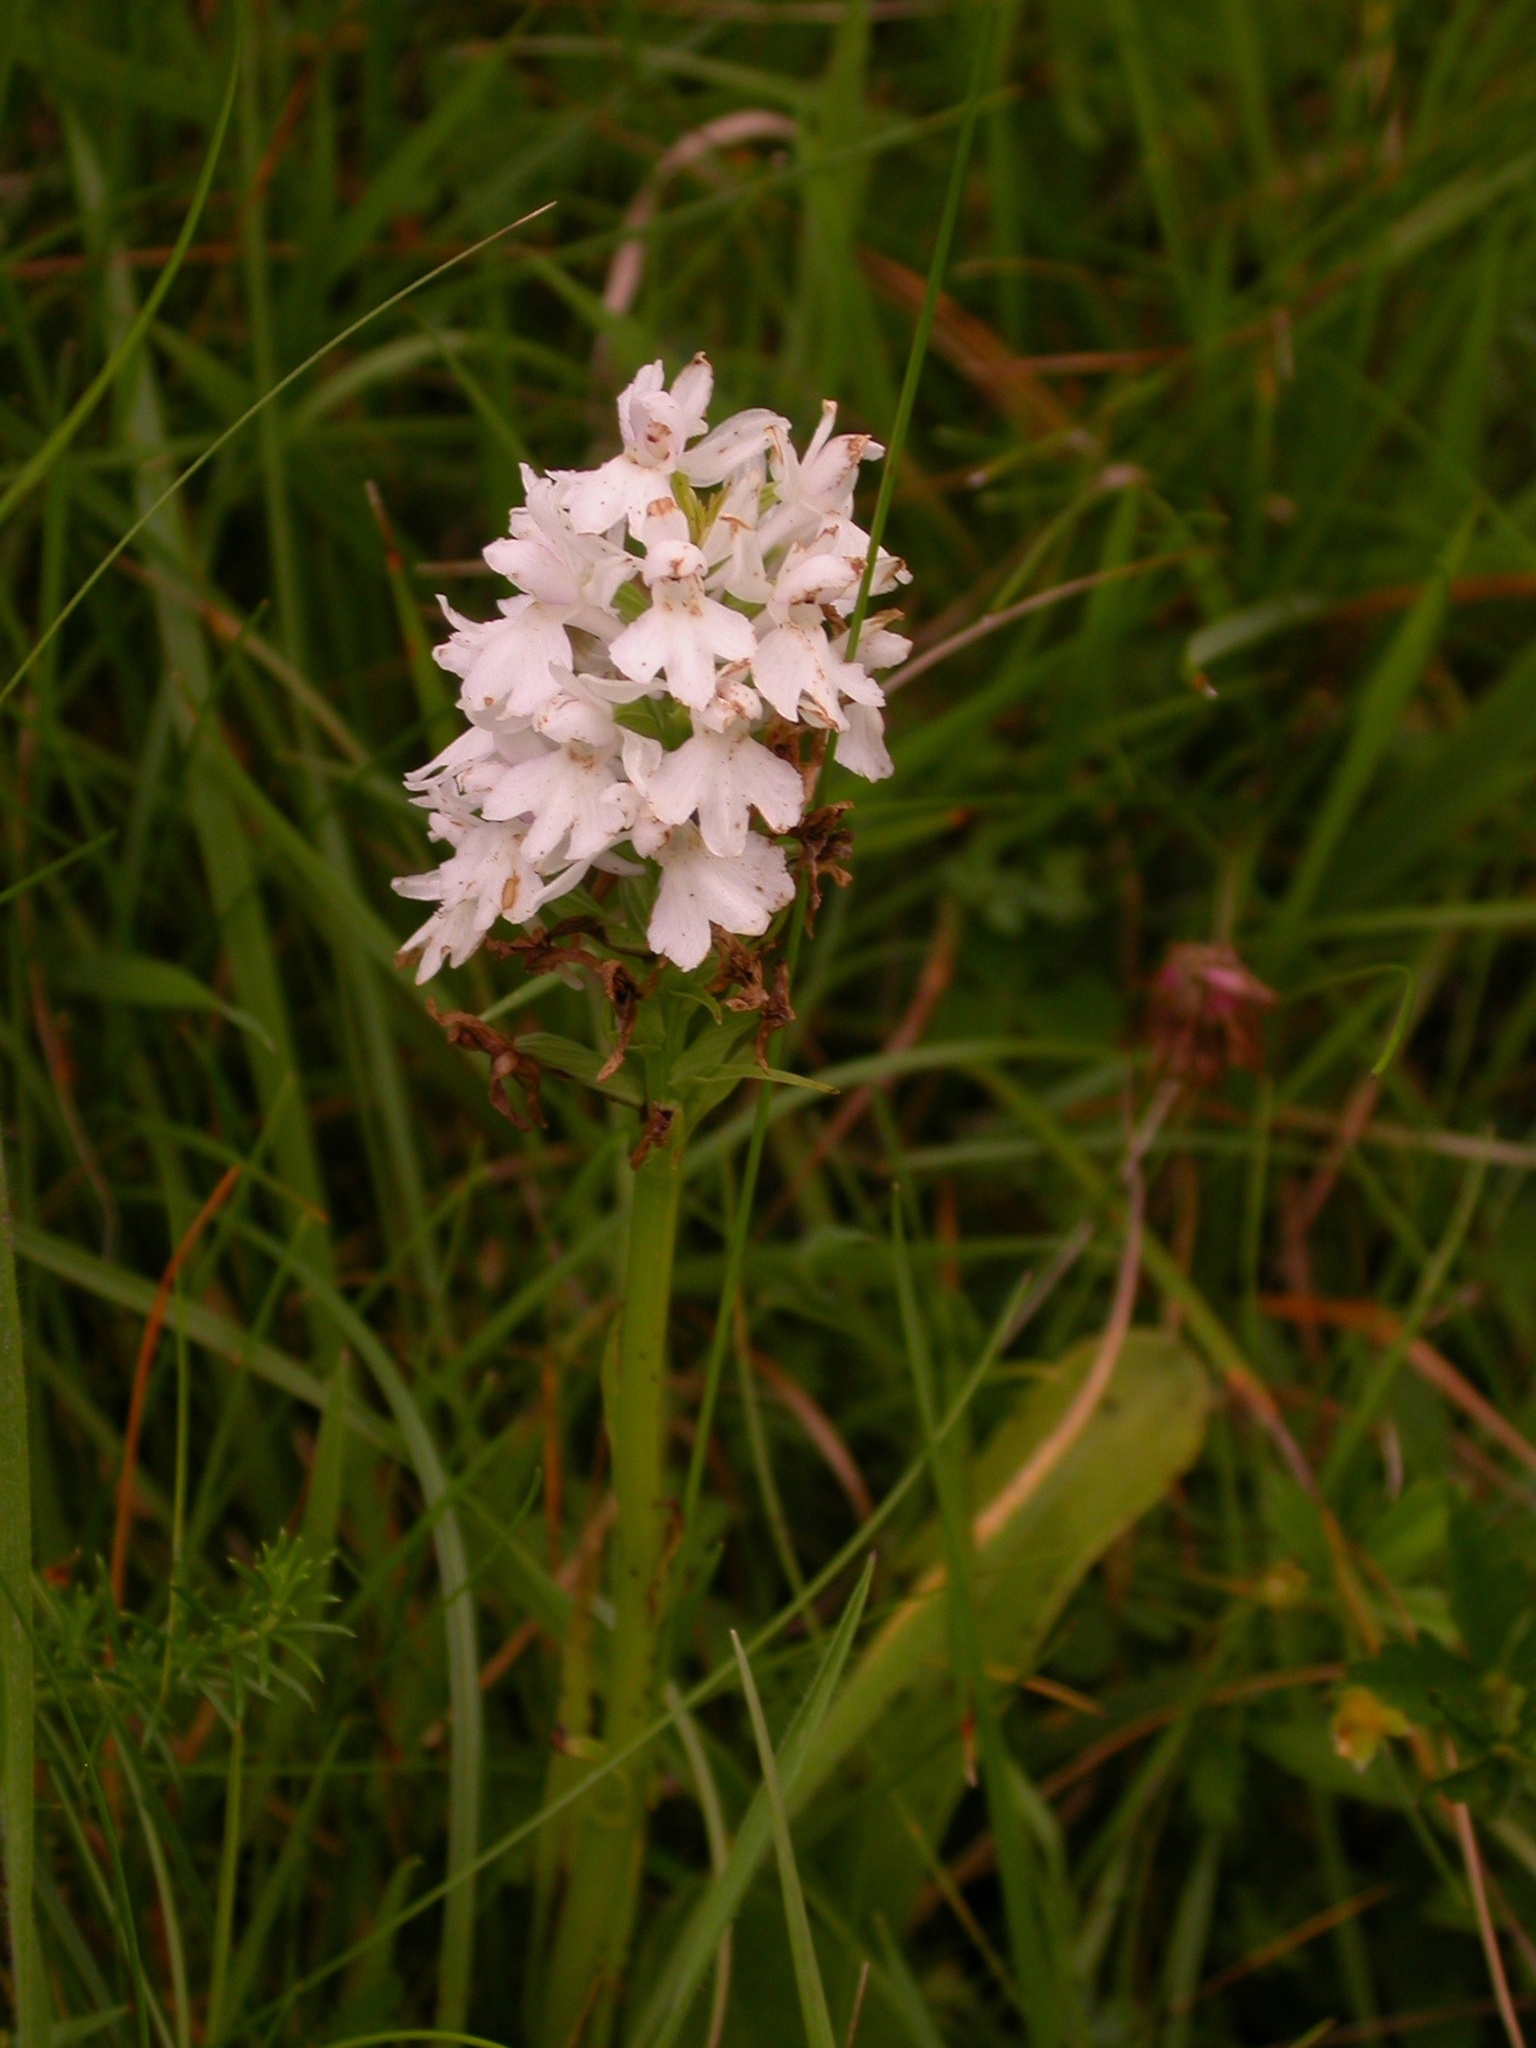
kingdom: Plantae
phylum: Tracheophyta
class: Liliopsida
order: Asparagales
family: Orchidaceae
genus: Anacamptis
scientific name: Anacamptis pyramidalis
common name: Pyramidal orchid
